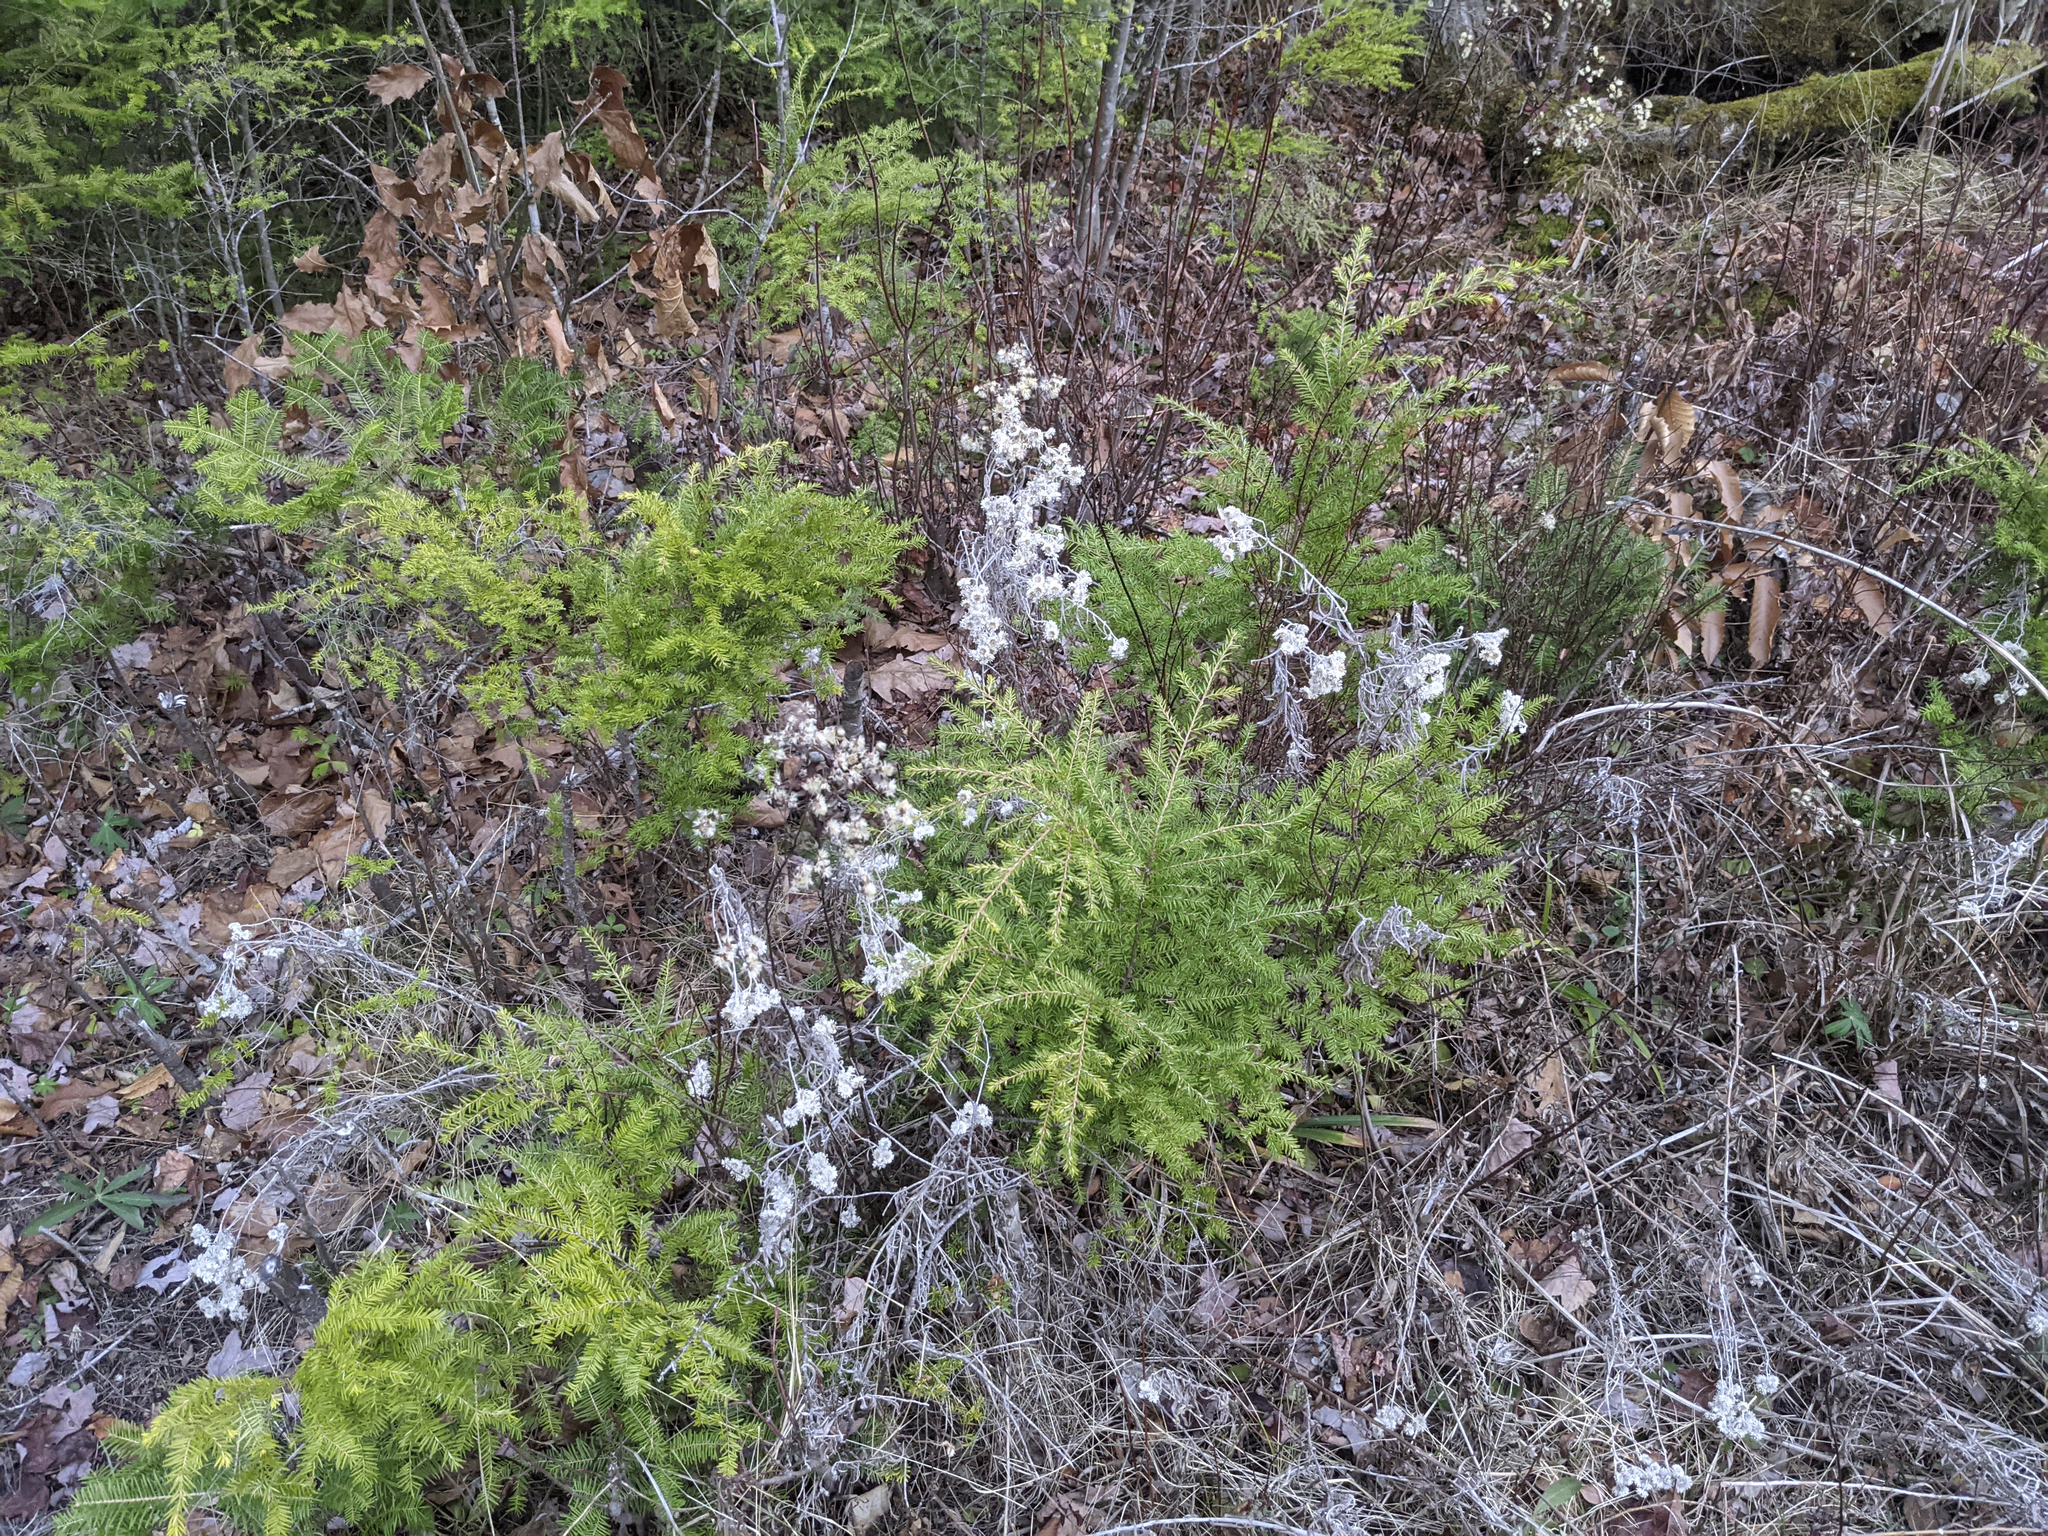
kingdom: Plantae
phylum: Tracheophyta
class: Pinopsida
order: Pinales
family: Pinaceae
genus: Tsuga
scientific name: Tsuga canadensis
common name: Eastern hemlock
